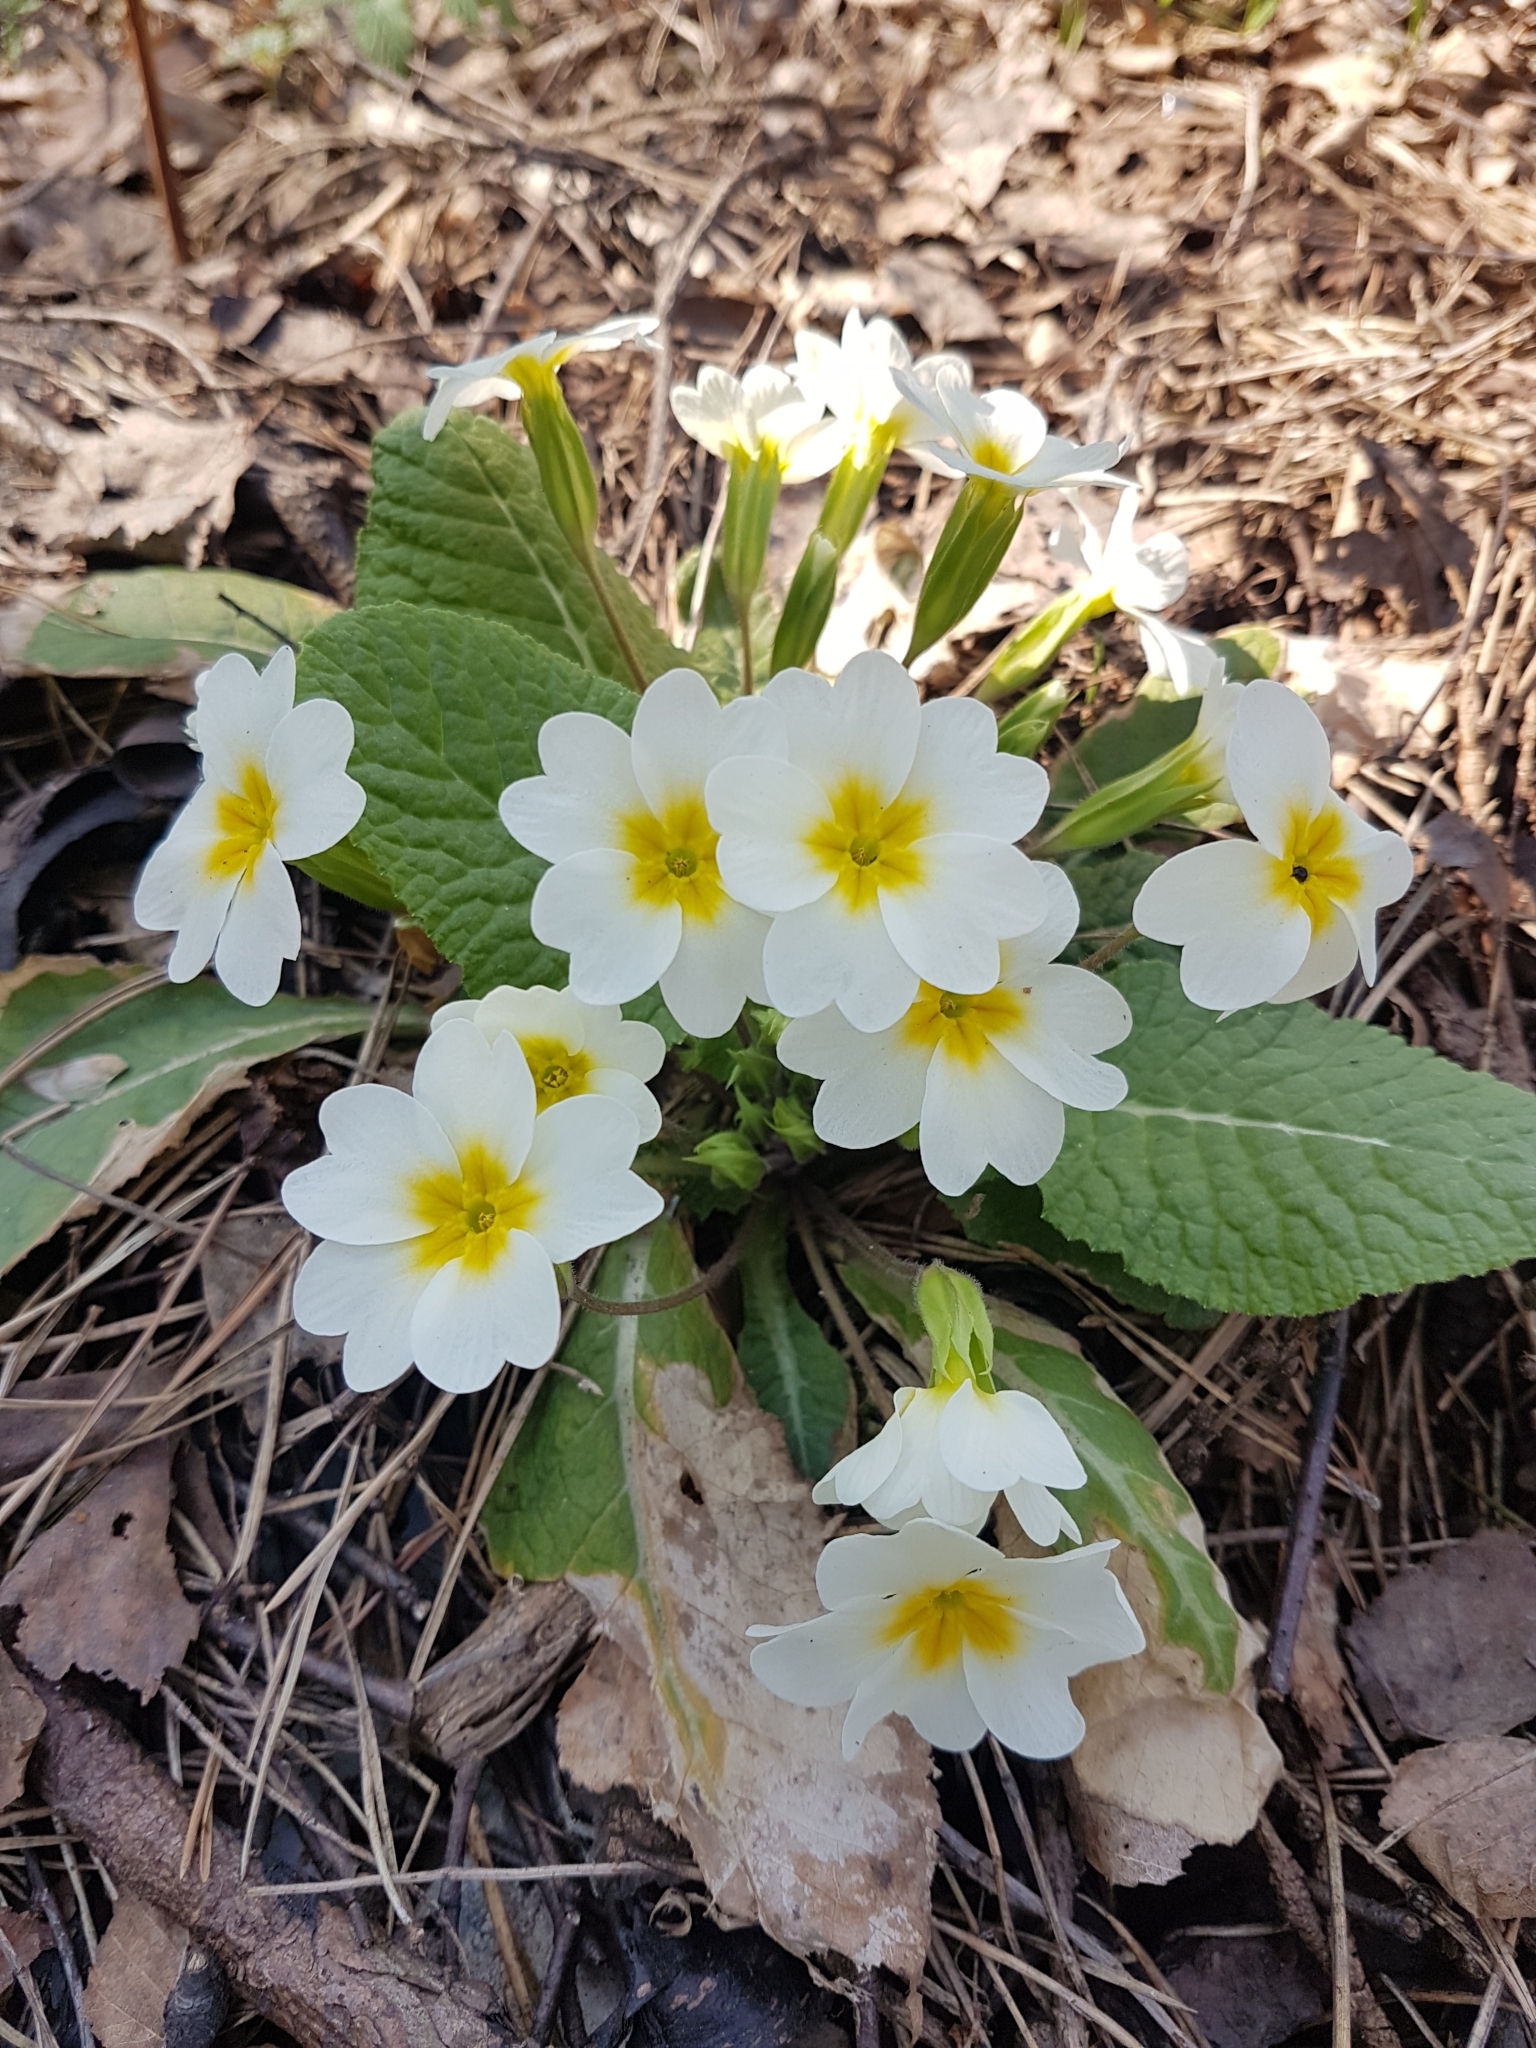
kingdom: Plantae
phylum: Tracheophyta
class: Magnoliopsida
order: Ericales
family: Primulaceae
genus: Primula
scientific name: Primula vulgaris
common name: Primrose
